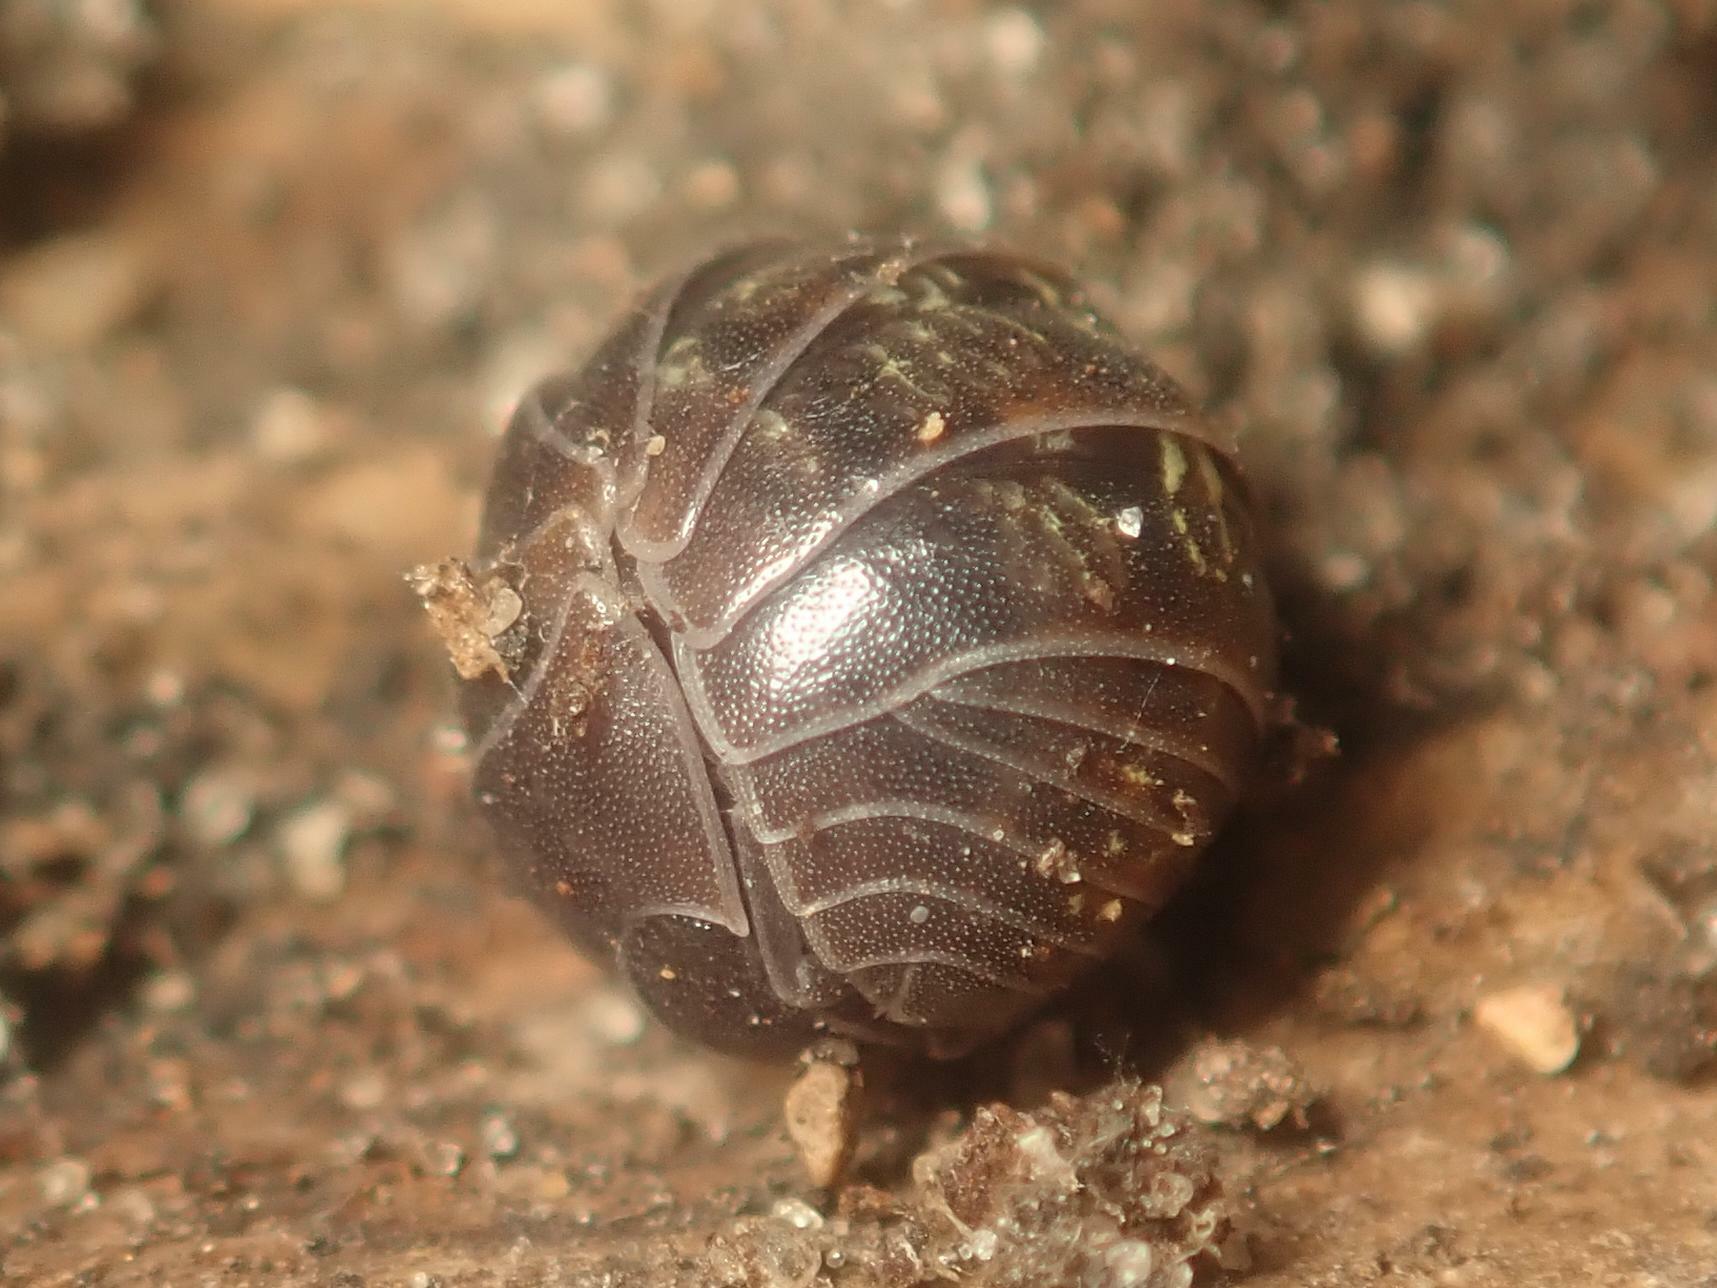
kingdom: Animalia
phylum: Arthropoda
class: Malacostraca
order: Isopoda
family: Armadillidiidae
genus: Armadillidium
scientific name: Armadillidium vulgare
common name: Common pill woodlouse
